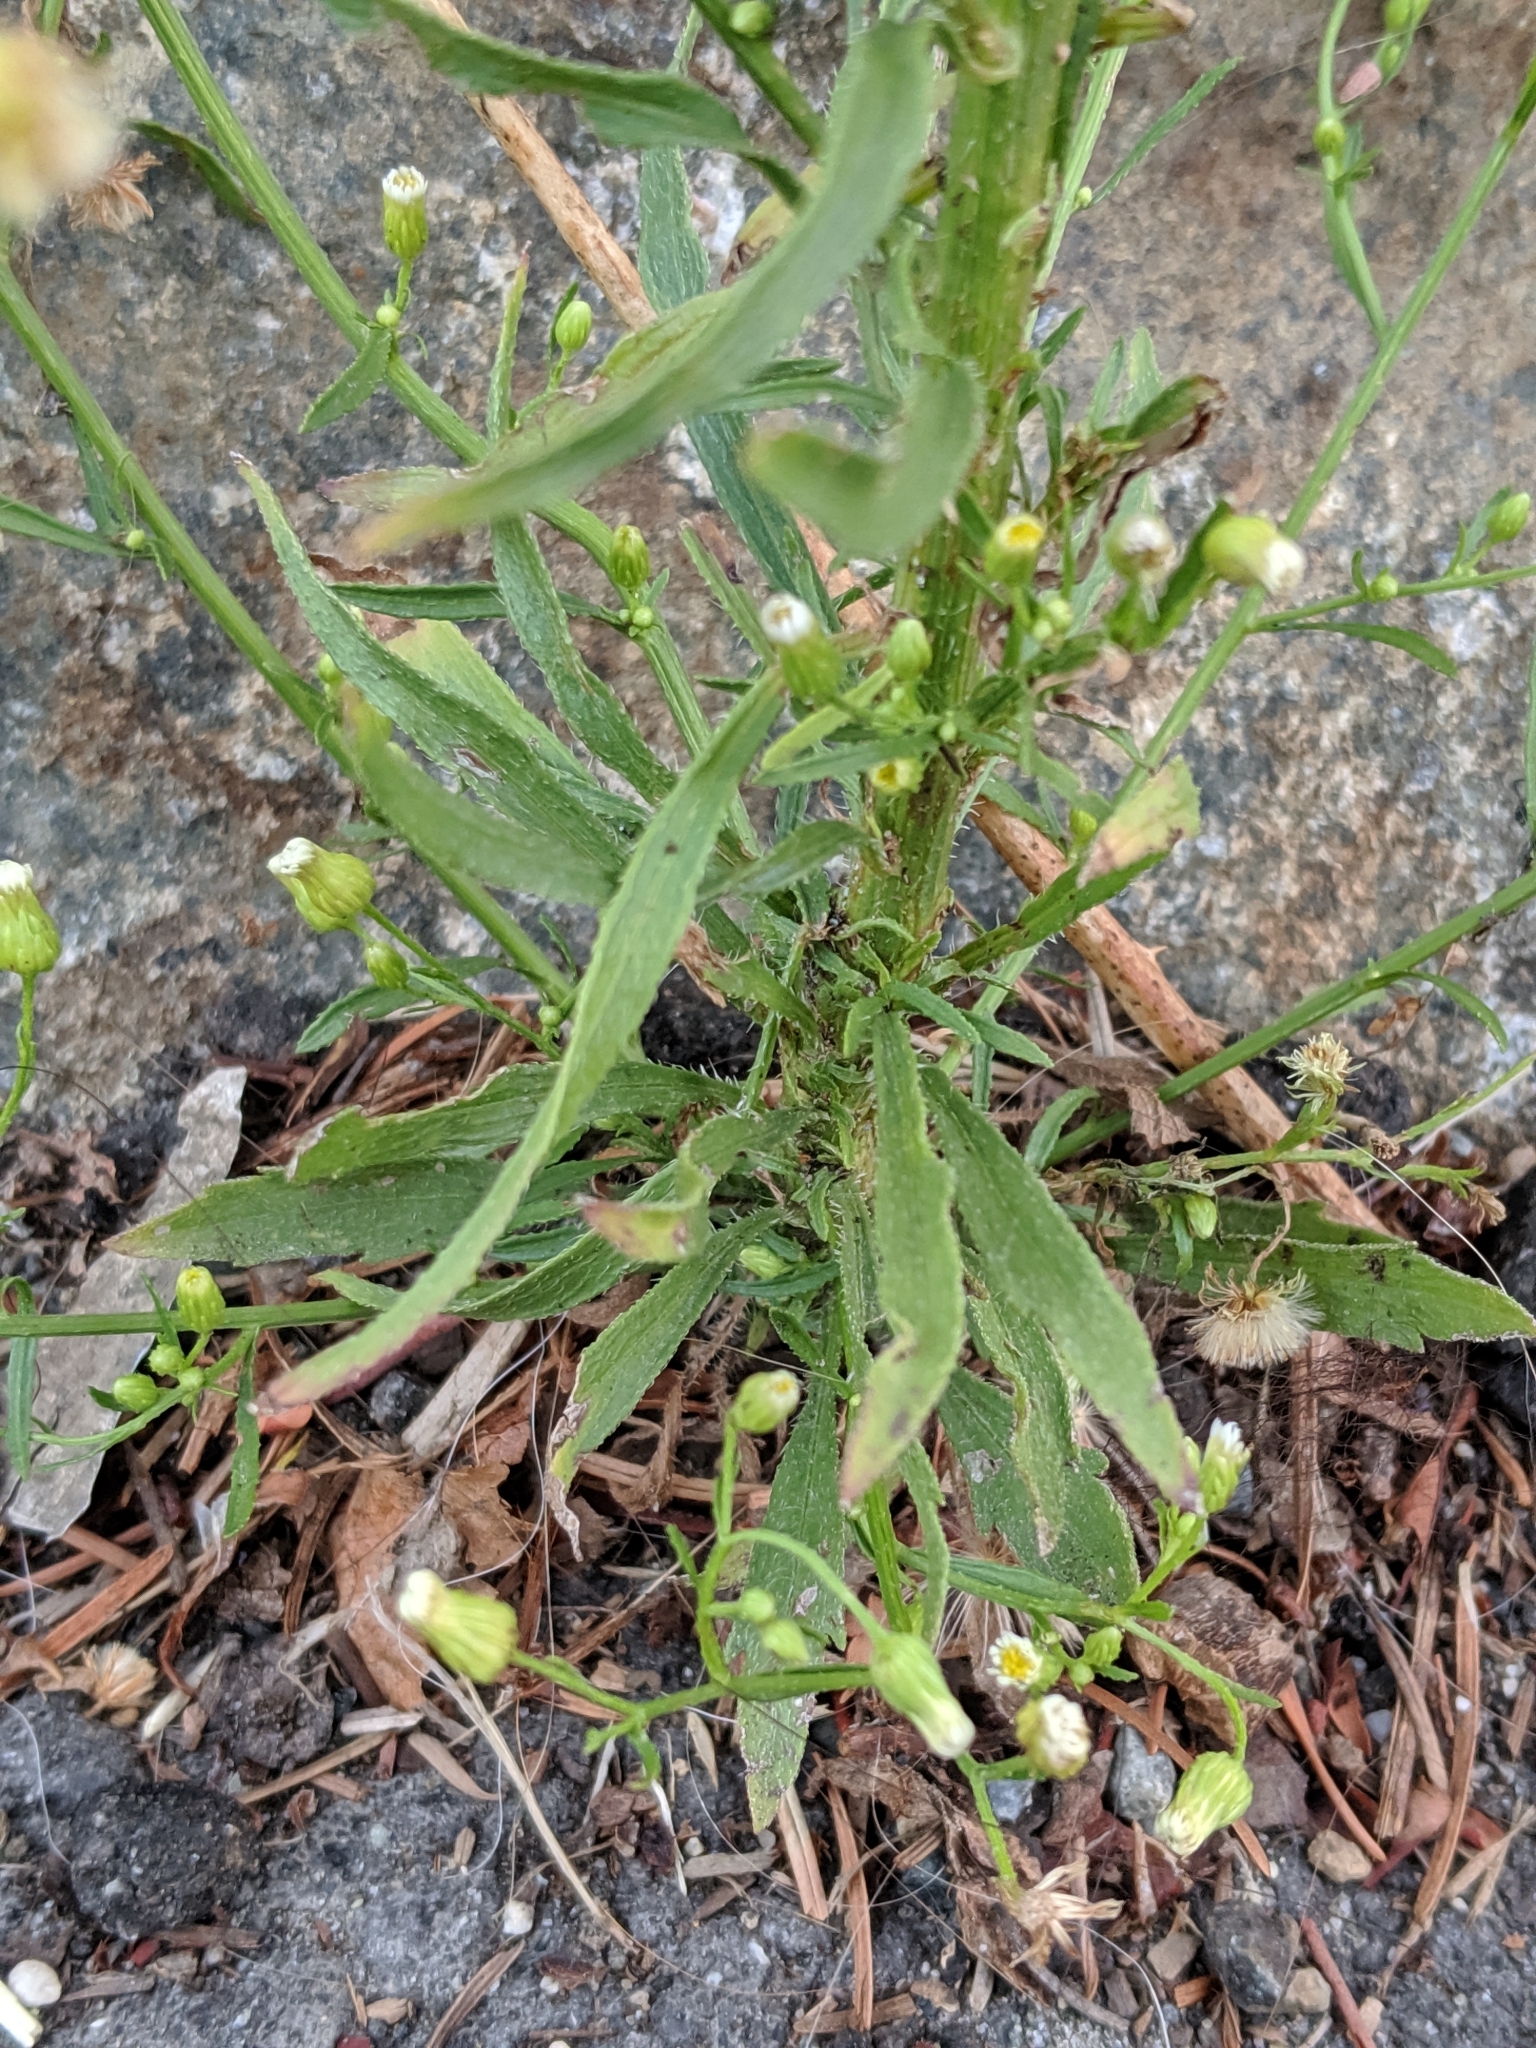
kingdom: Plantae
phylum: Tracheophyta
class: Magnoliopsida
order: Asterales
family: Asteraceae
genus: Erigeron
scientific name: Erigeron canadensis
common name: Canadian fleabane
